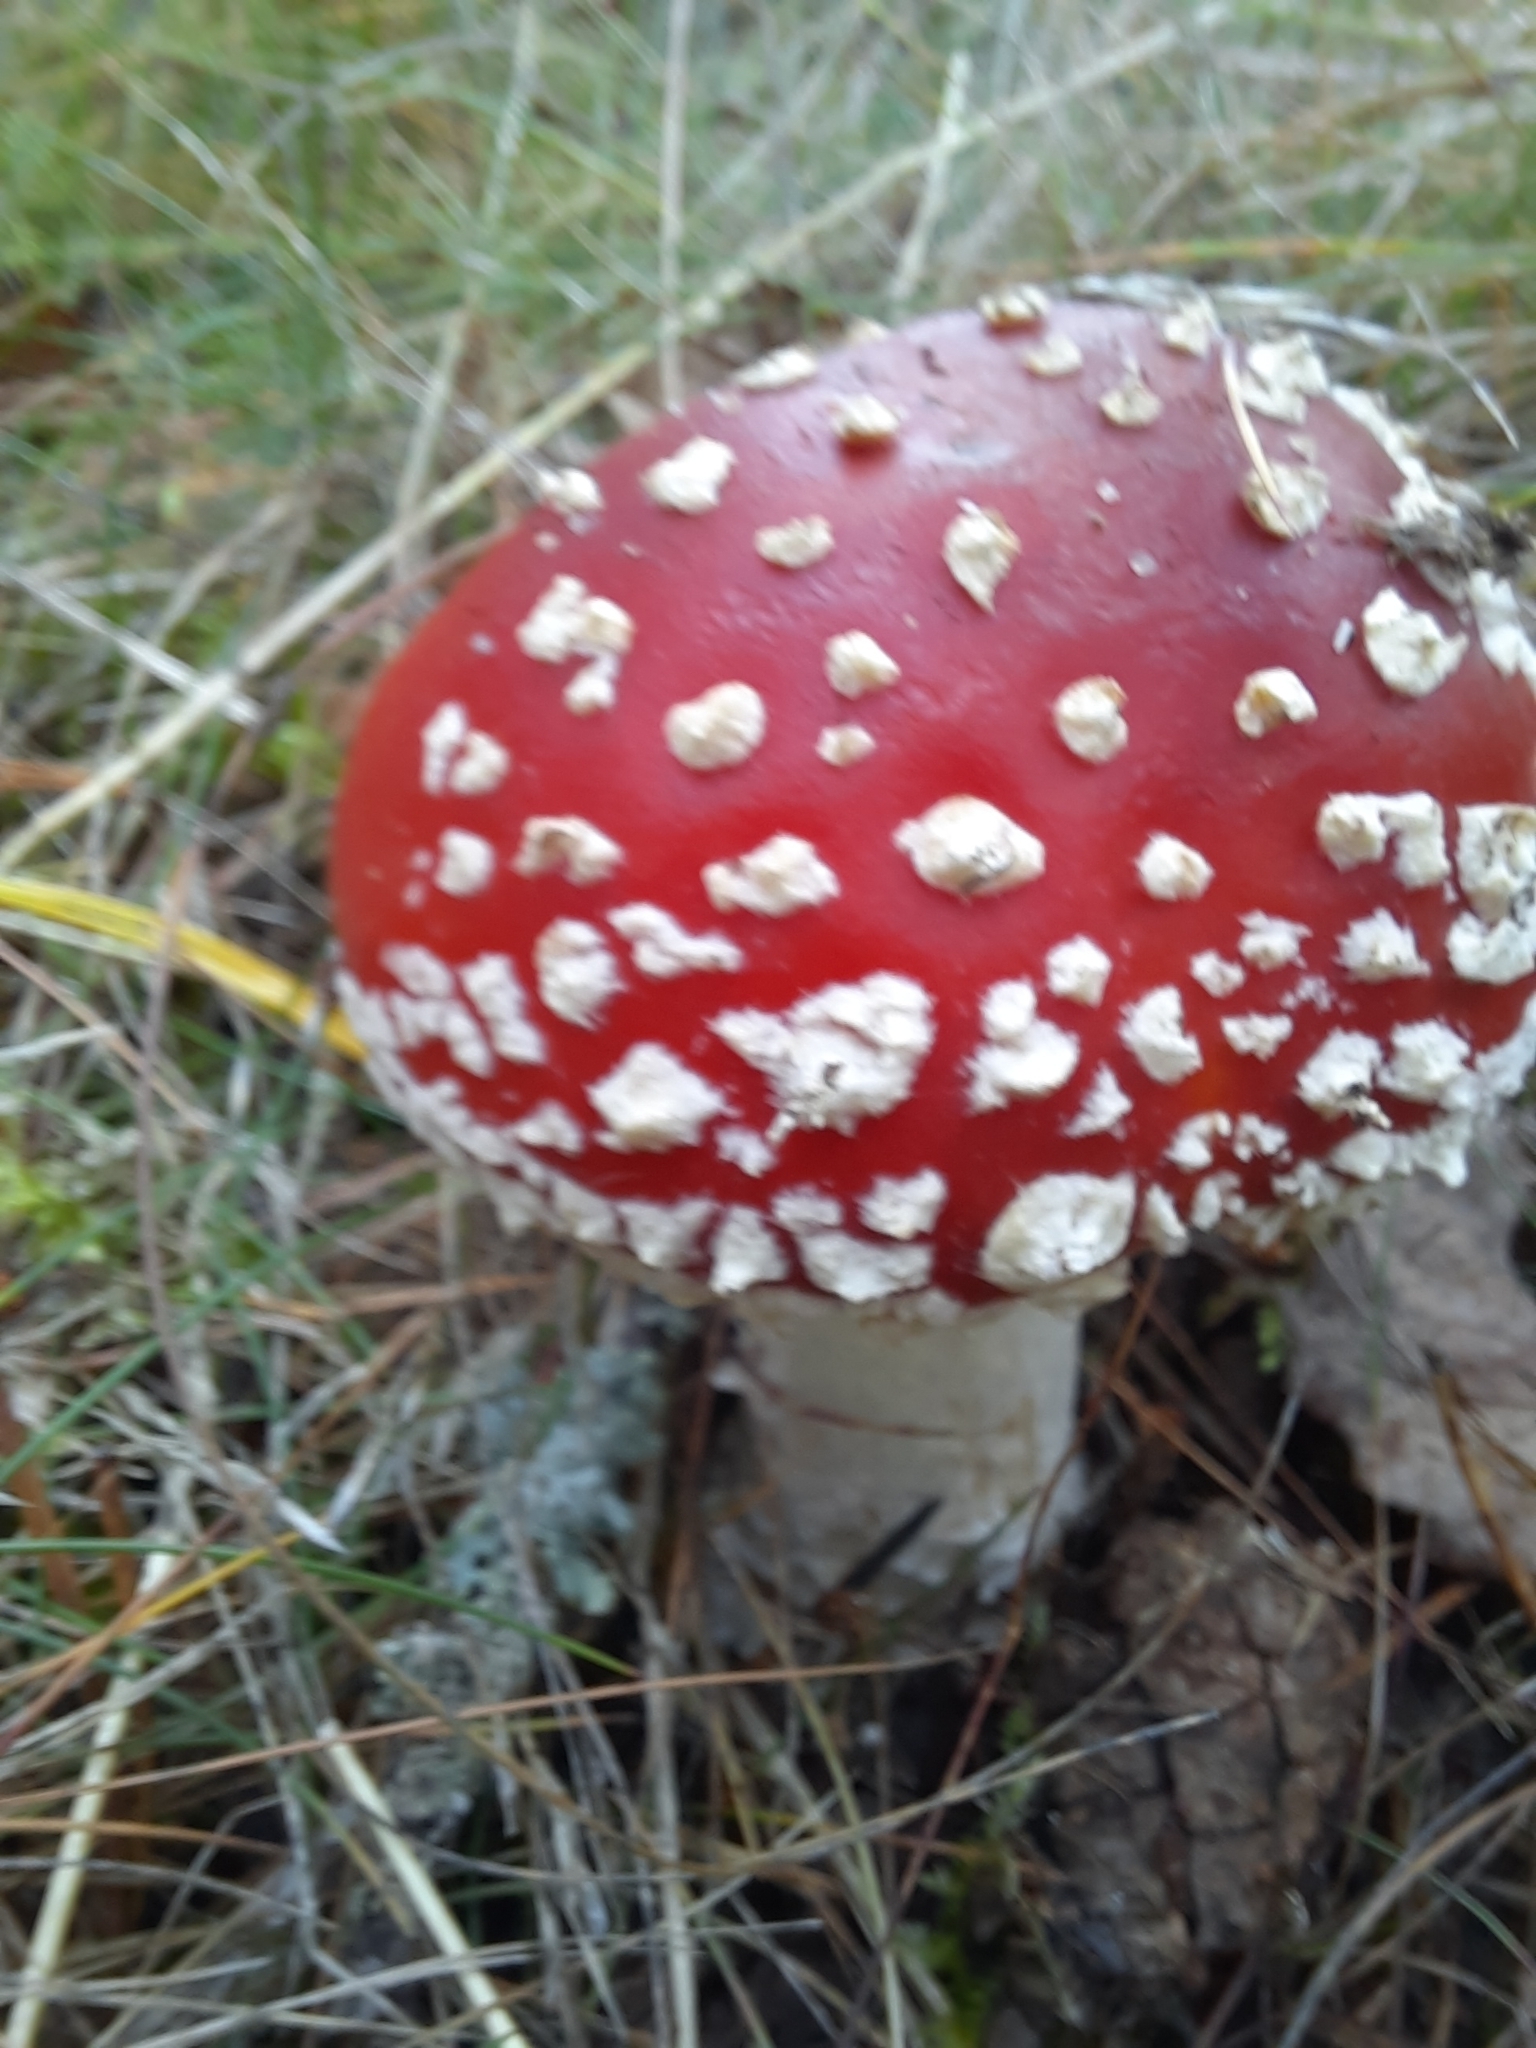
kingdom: Fungi
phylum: Basidiomycota
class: Agaricomycetes
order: Agaricales
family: Amanitaceae
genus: Amanita
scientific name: Amanita muscaria
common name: Fly agaric
